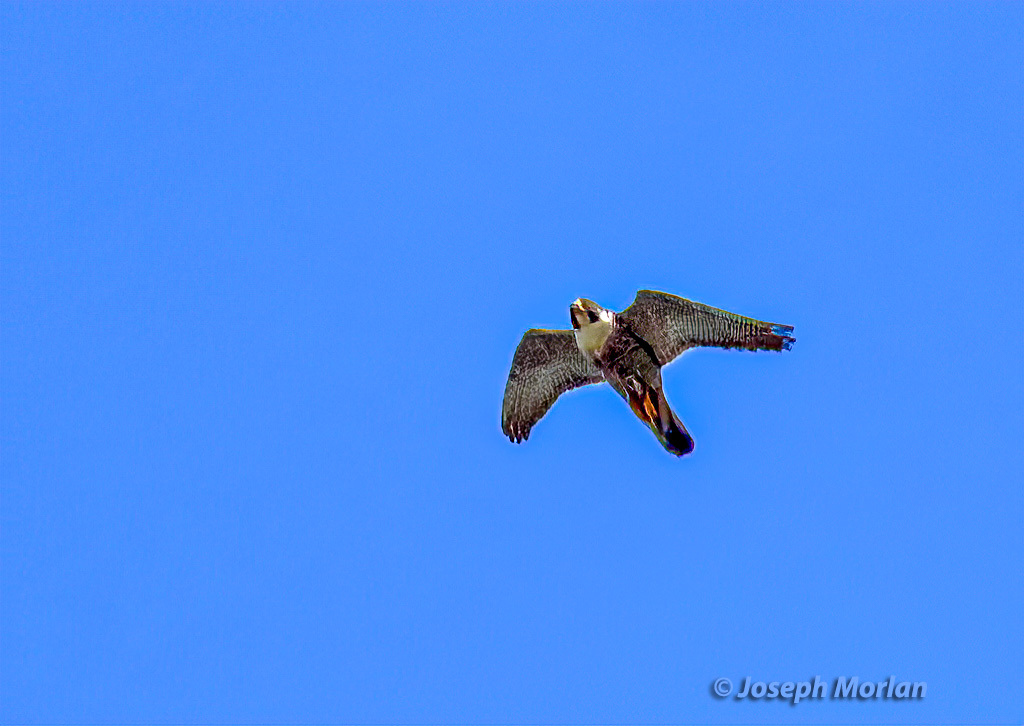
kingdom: Animalia
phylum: Chordata
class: Aves
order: Falconiformes
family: Falconidae
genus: Falco
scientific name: Falco peregrinus
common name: Peregrine falcon
